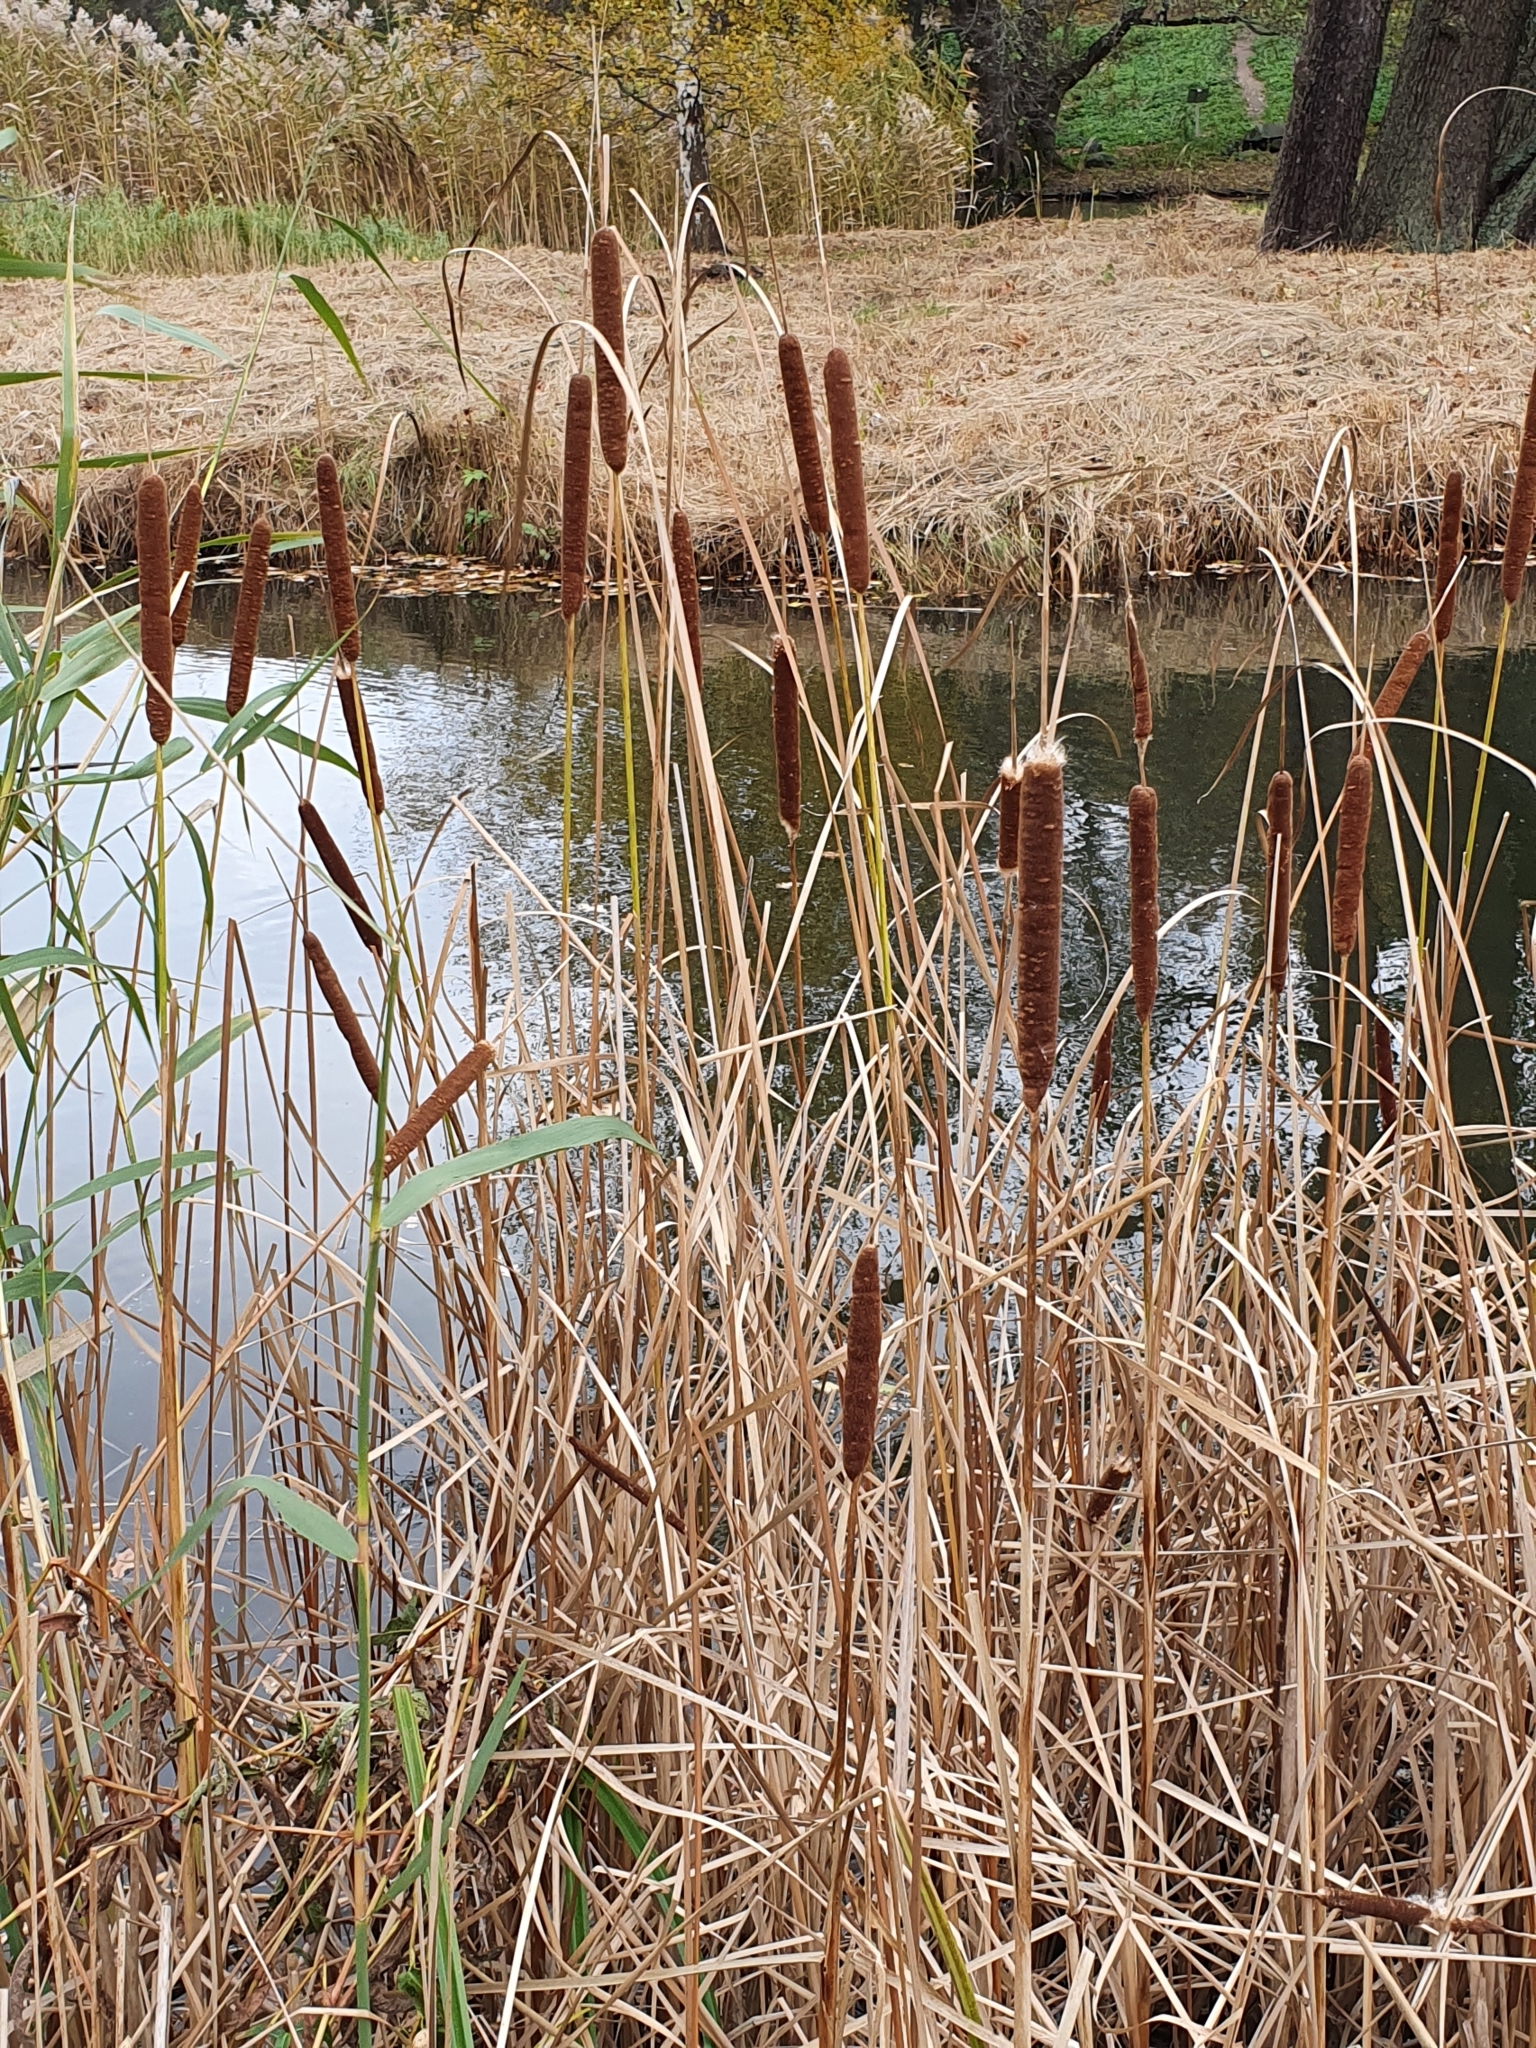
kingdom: Plantae
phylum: Tracheophyta
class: Liliopsida
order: Poales
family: Typhaceae
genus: Typha
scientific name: Typha angustifolia
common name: Lesser bulrush
